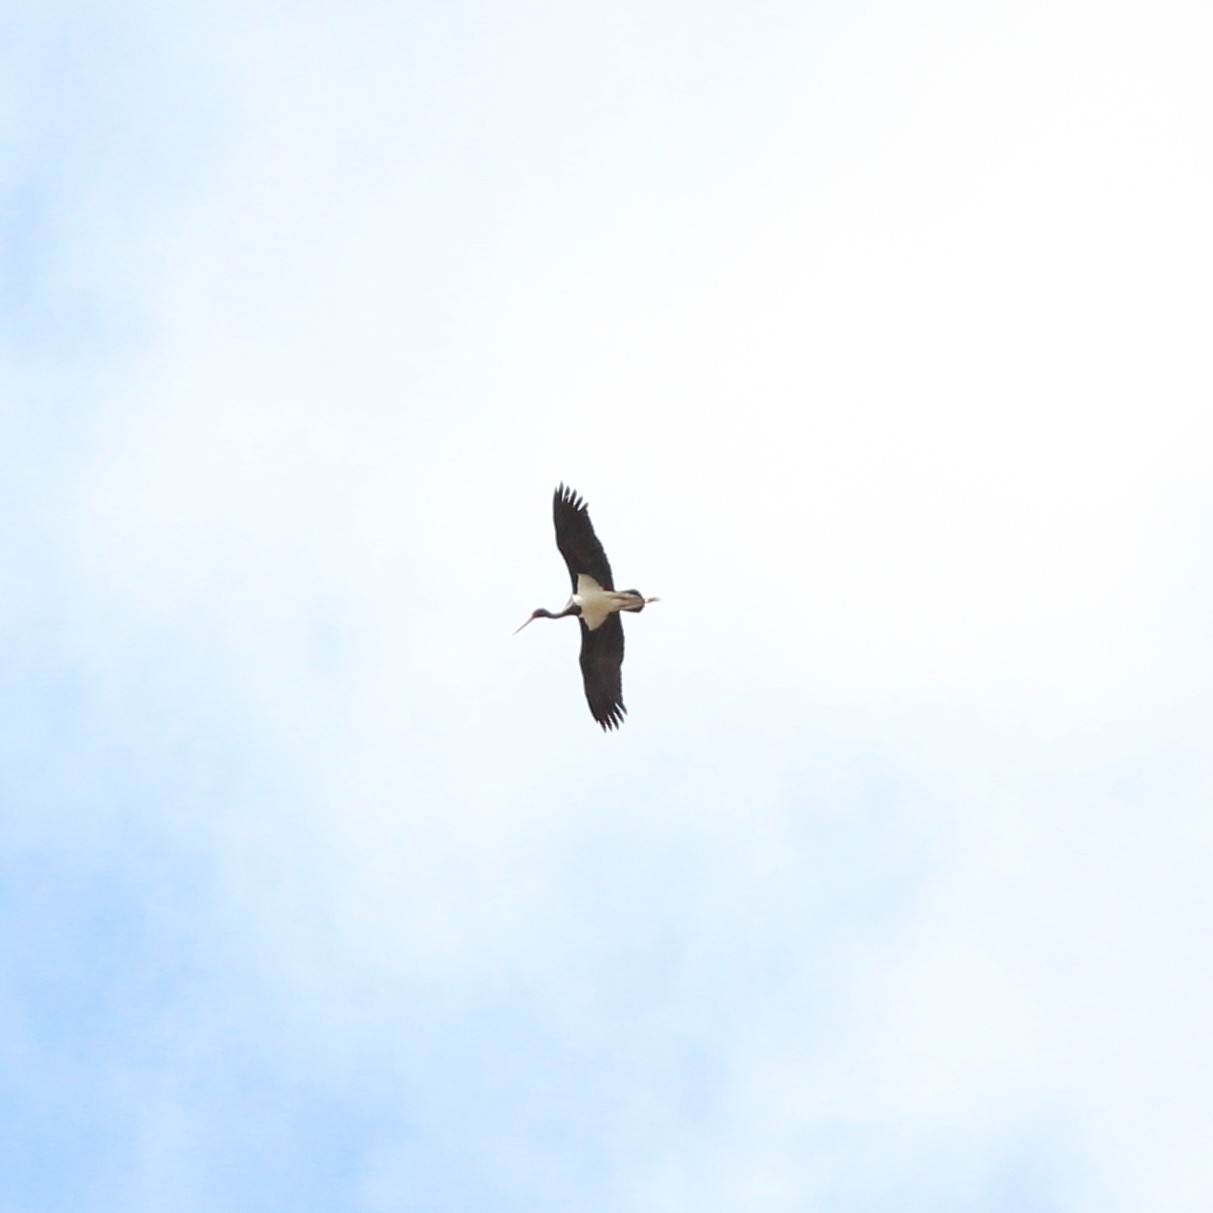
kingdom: Animalia
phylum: Chordata
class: Aves
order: Ciconiiformes
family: Ciconiidae
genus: Ciconia
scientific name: Ciconia nigra
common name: Black stork
